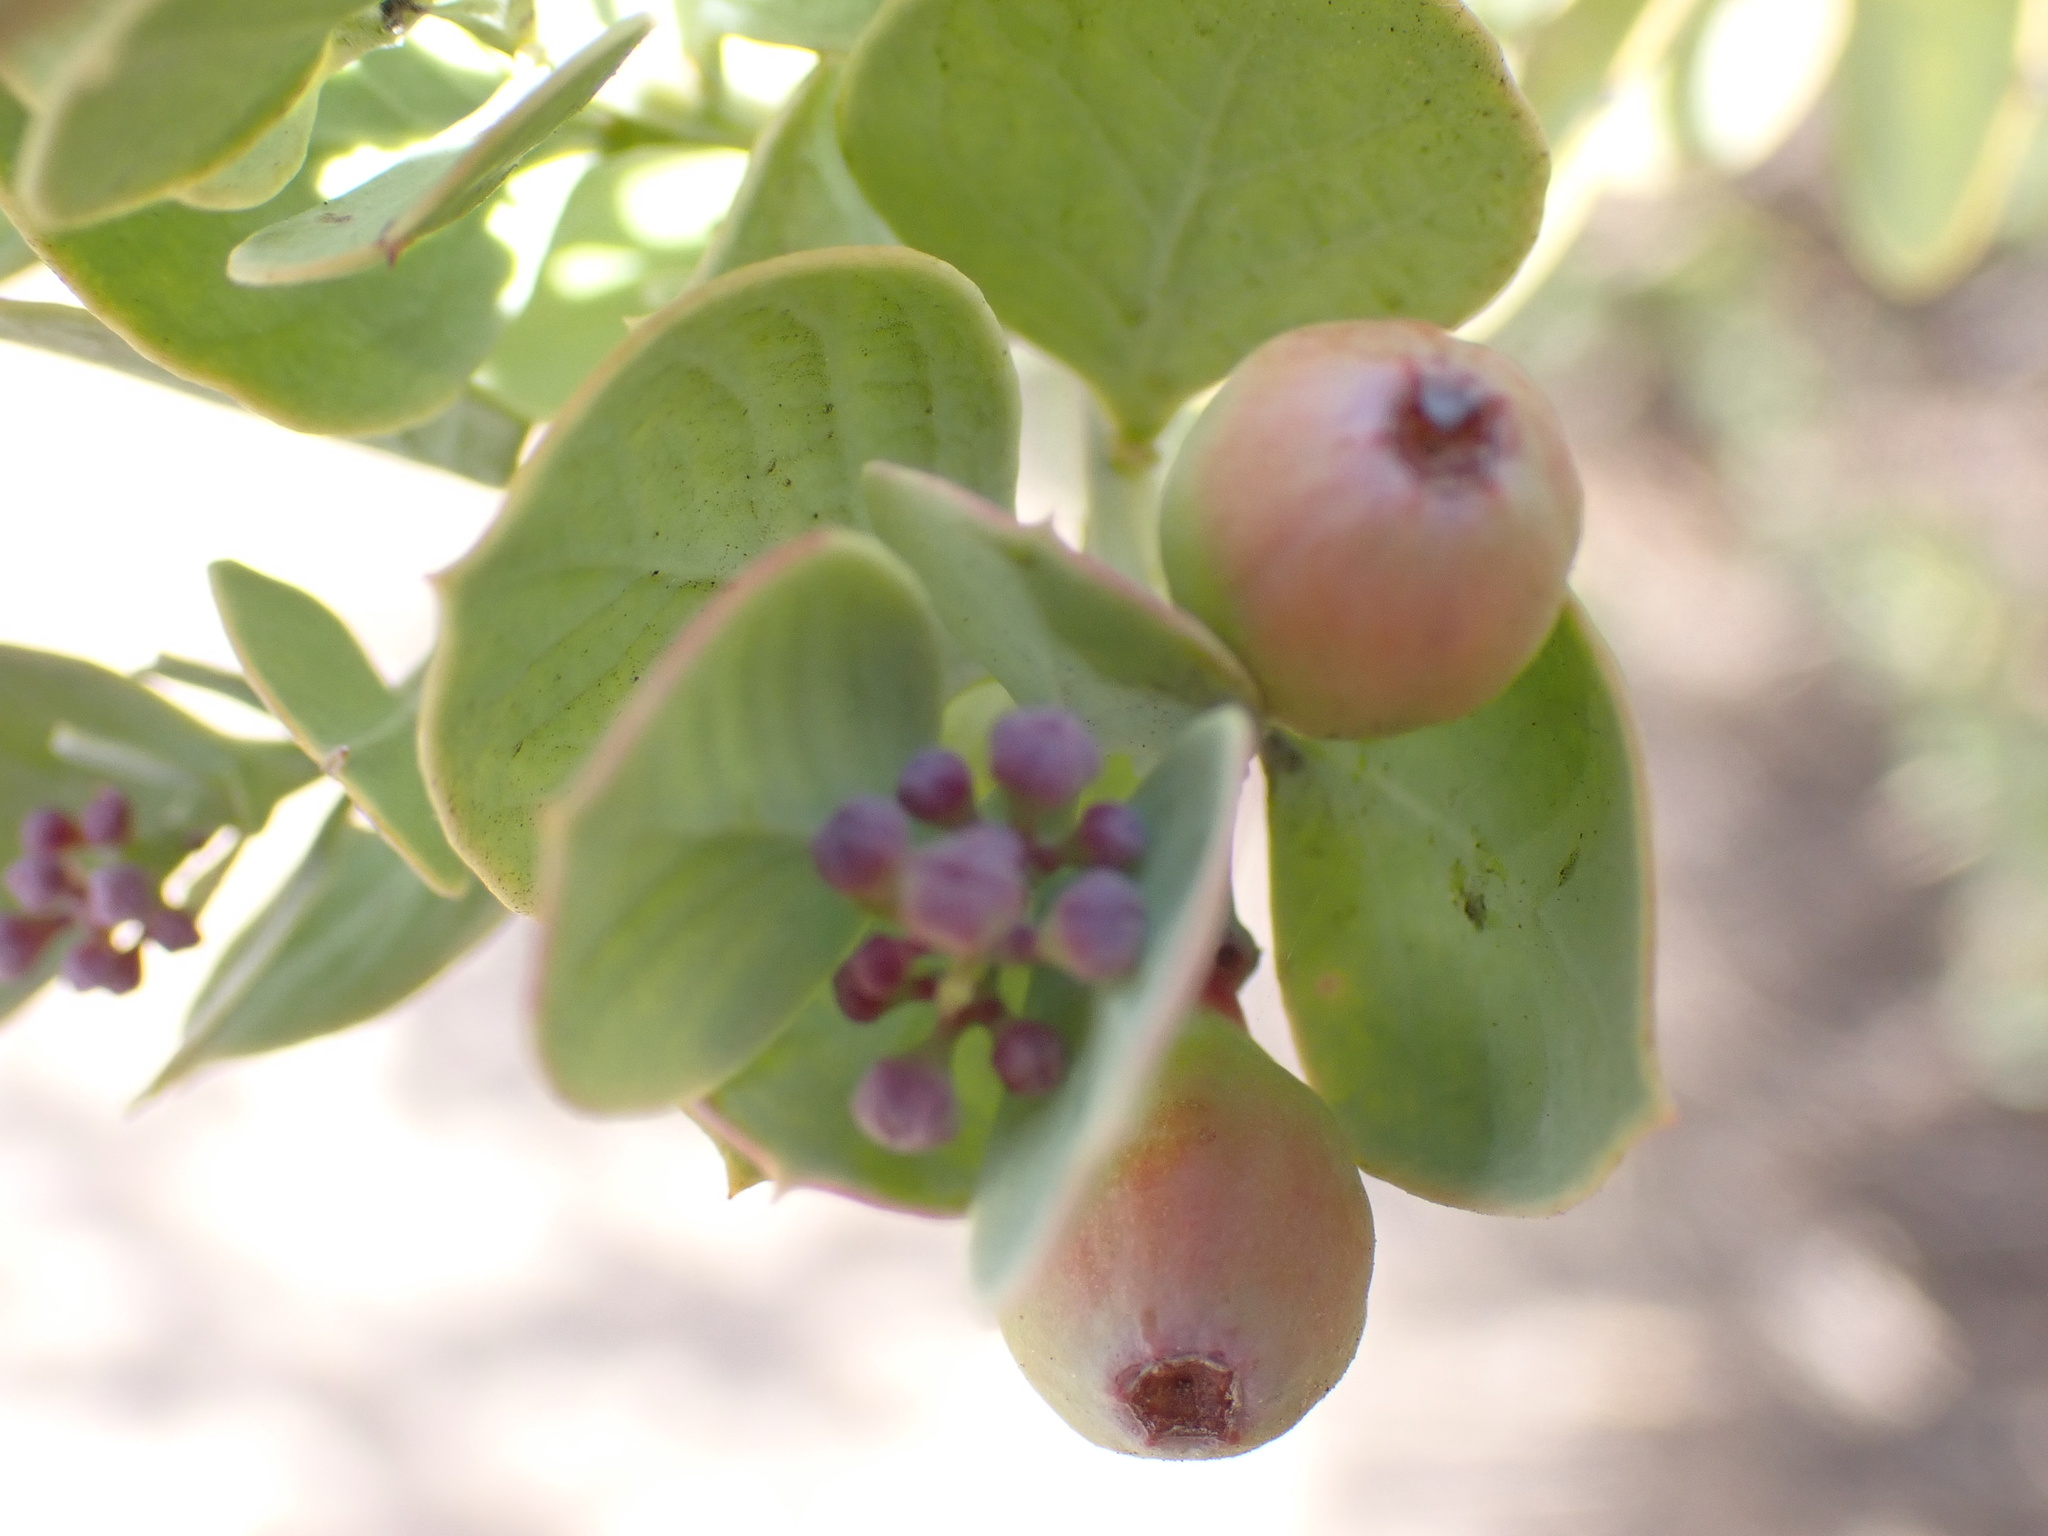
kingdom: Plantae
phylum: Tracheophyta
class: Magnoliopsida
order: Santalales
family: Santalaceae
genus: Osyris
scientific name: Osyris compressa
